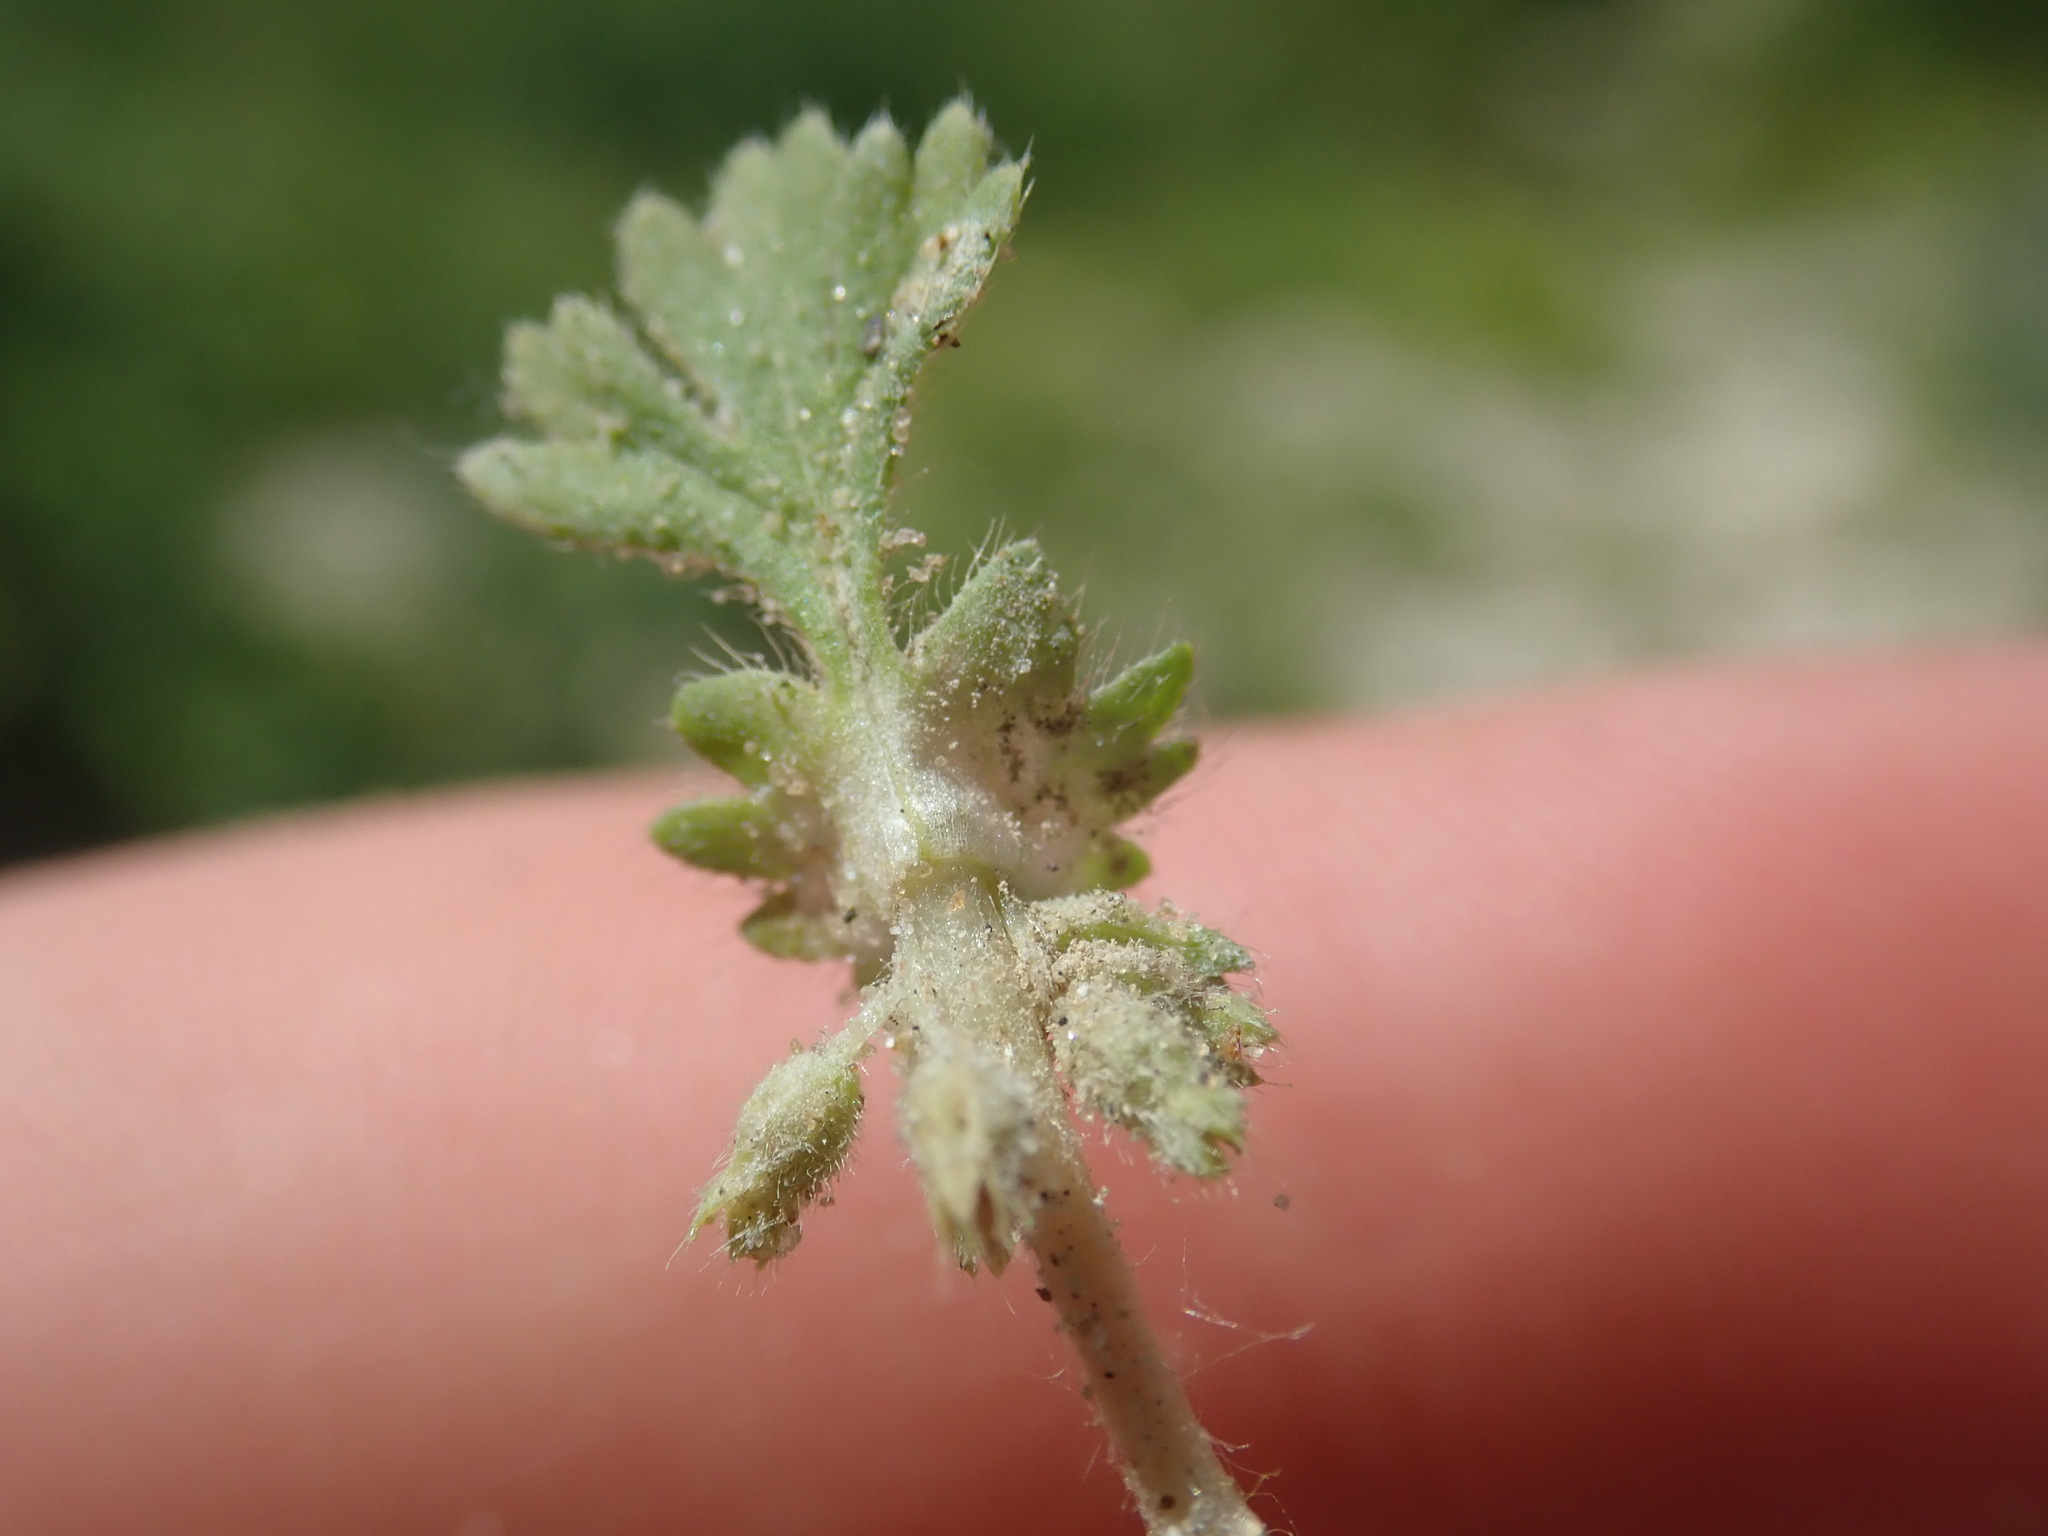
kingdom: Plantae
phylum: Tracheophyta
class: Magnoliopsida
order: Rosales
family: Rosaceae
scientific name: Rosaceae
